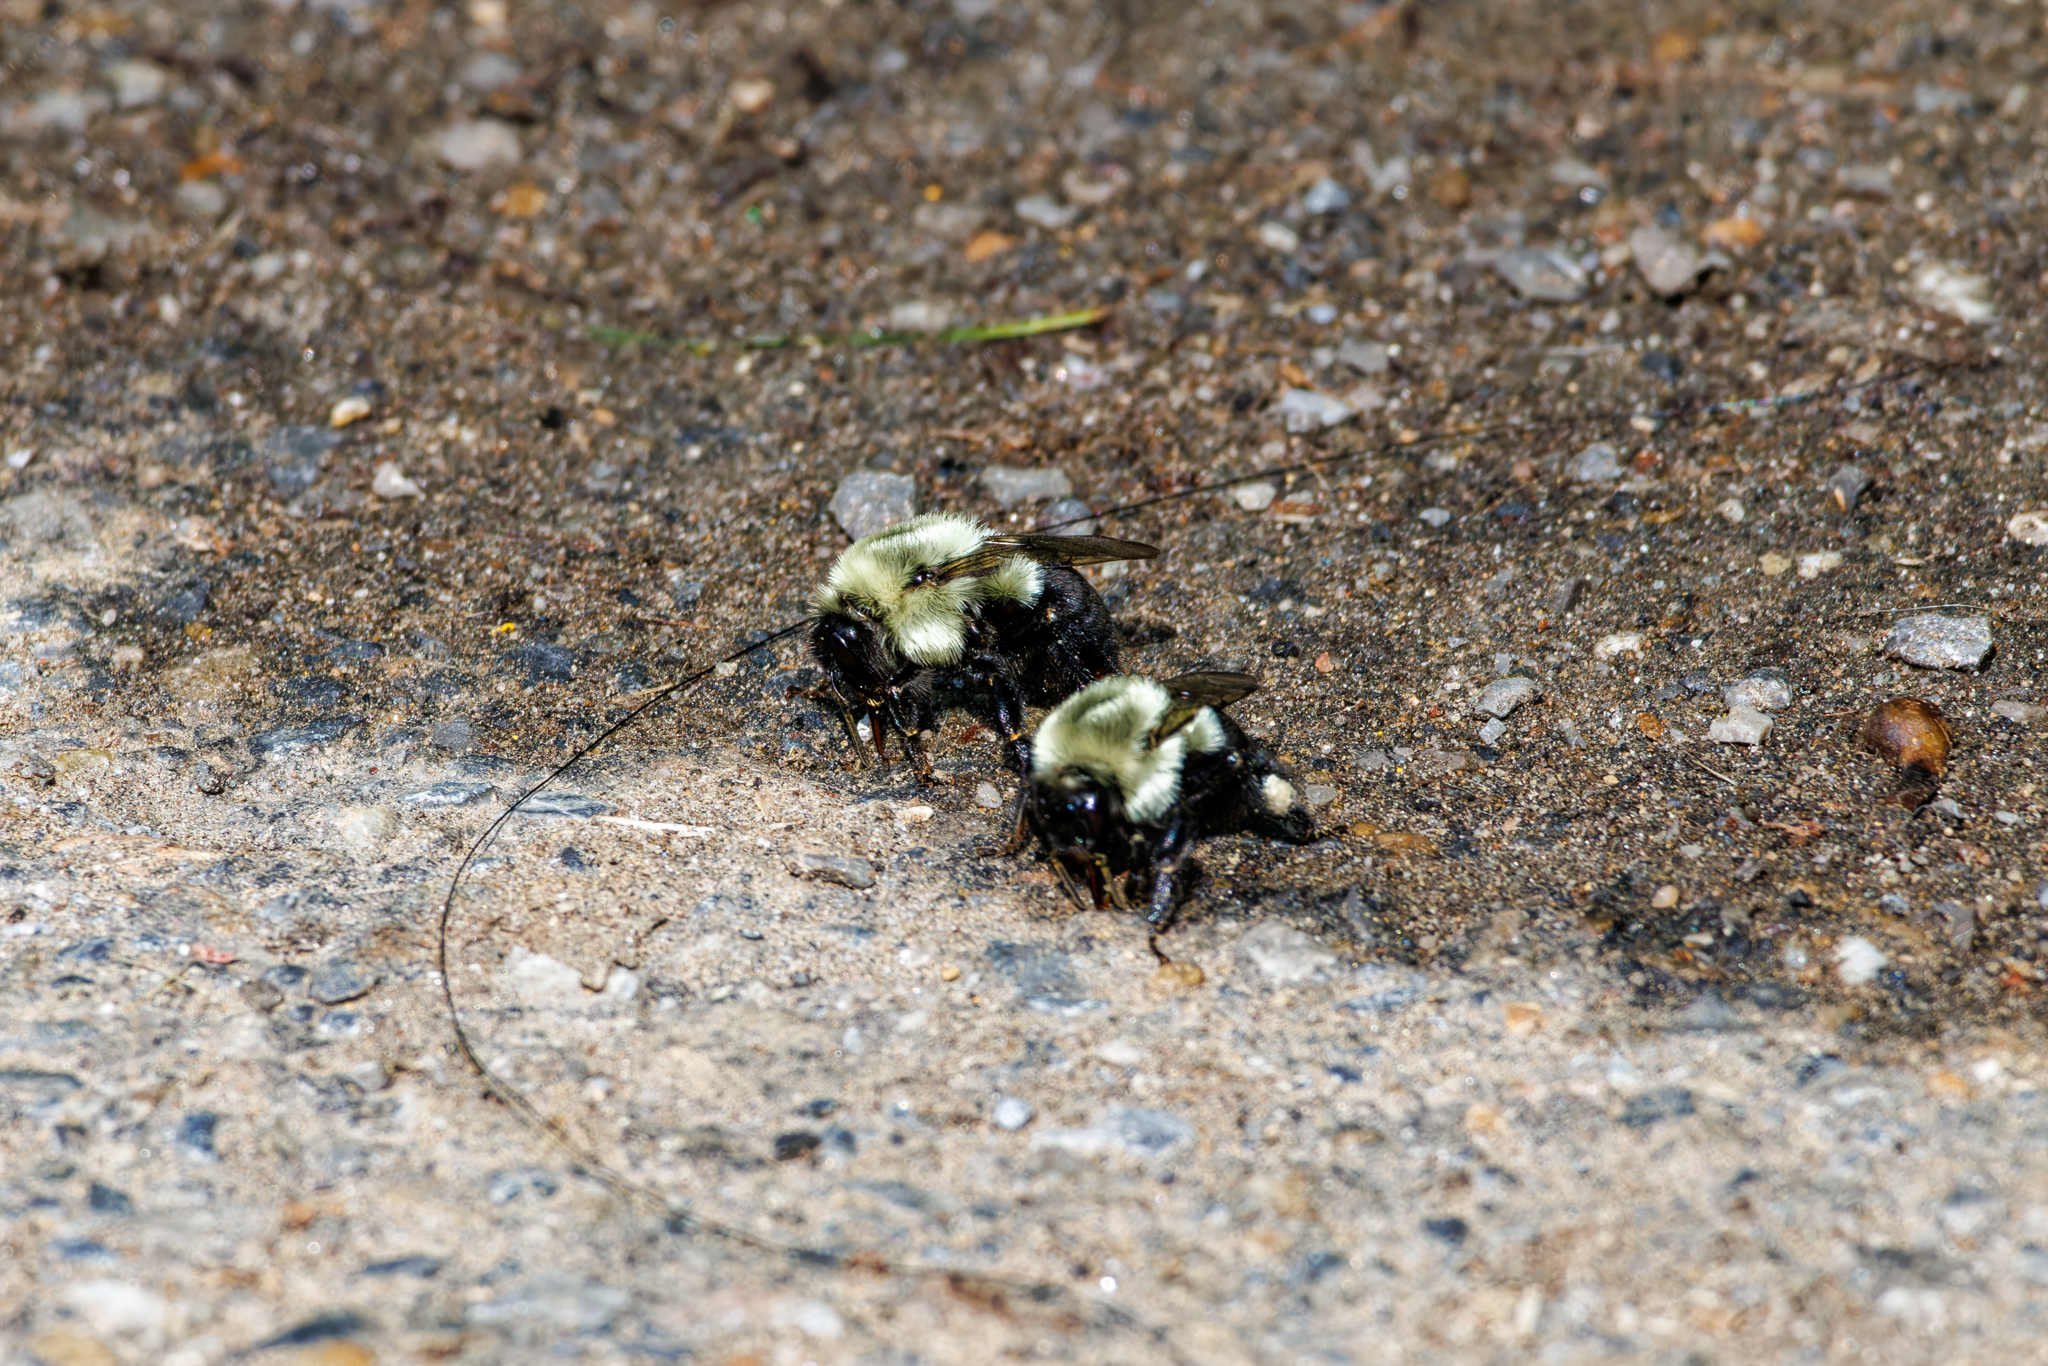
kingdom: Animalia
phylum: Arthropoda
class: Insecta
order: Hymenoptera
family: Apidae
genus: Bombus
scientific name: Bombus impatiens
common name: Common eastern bumble bee
